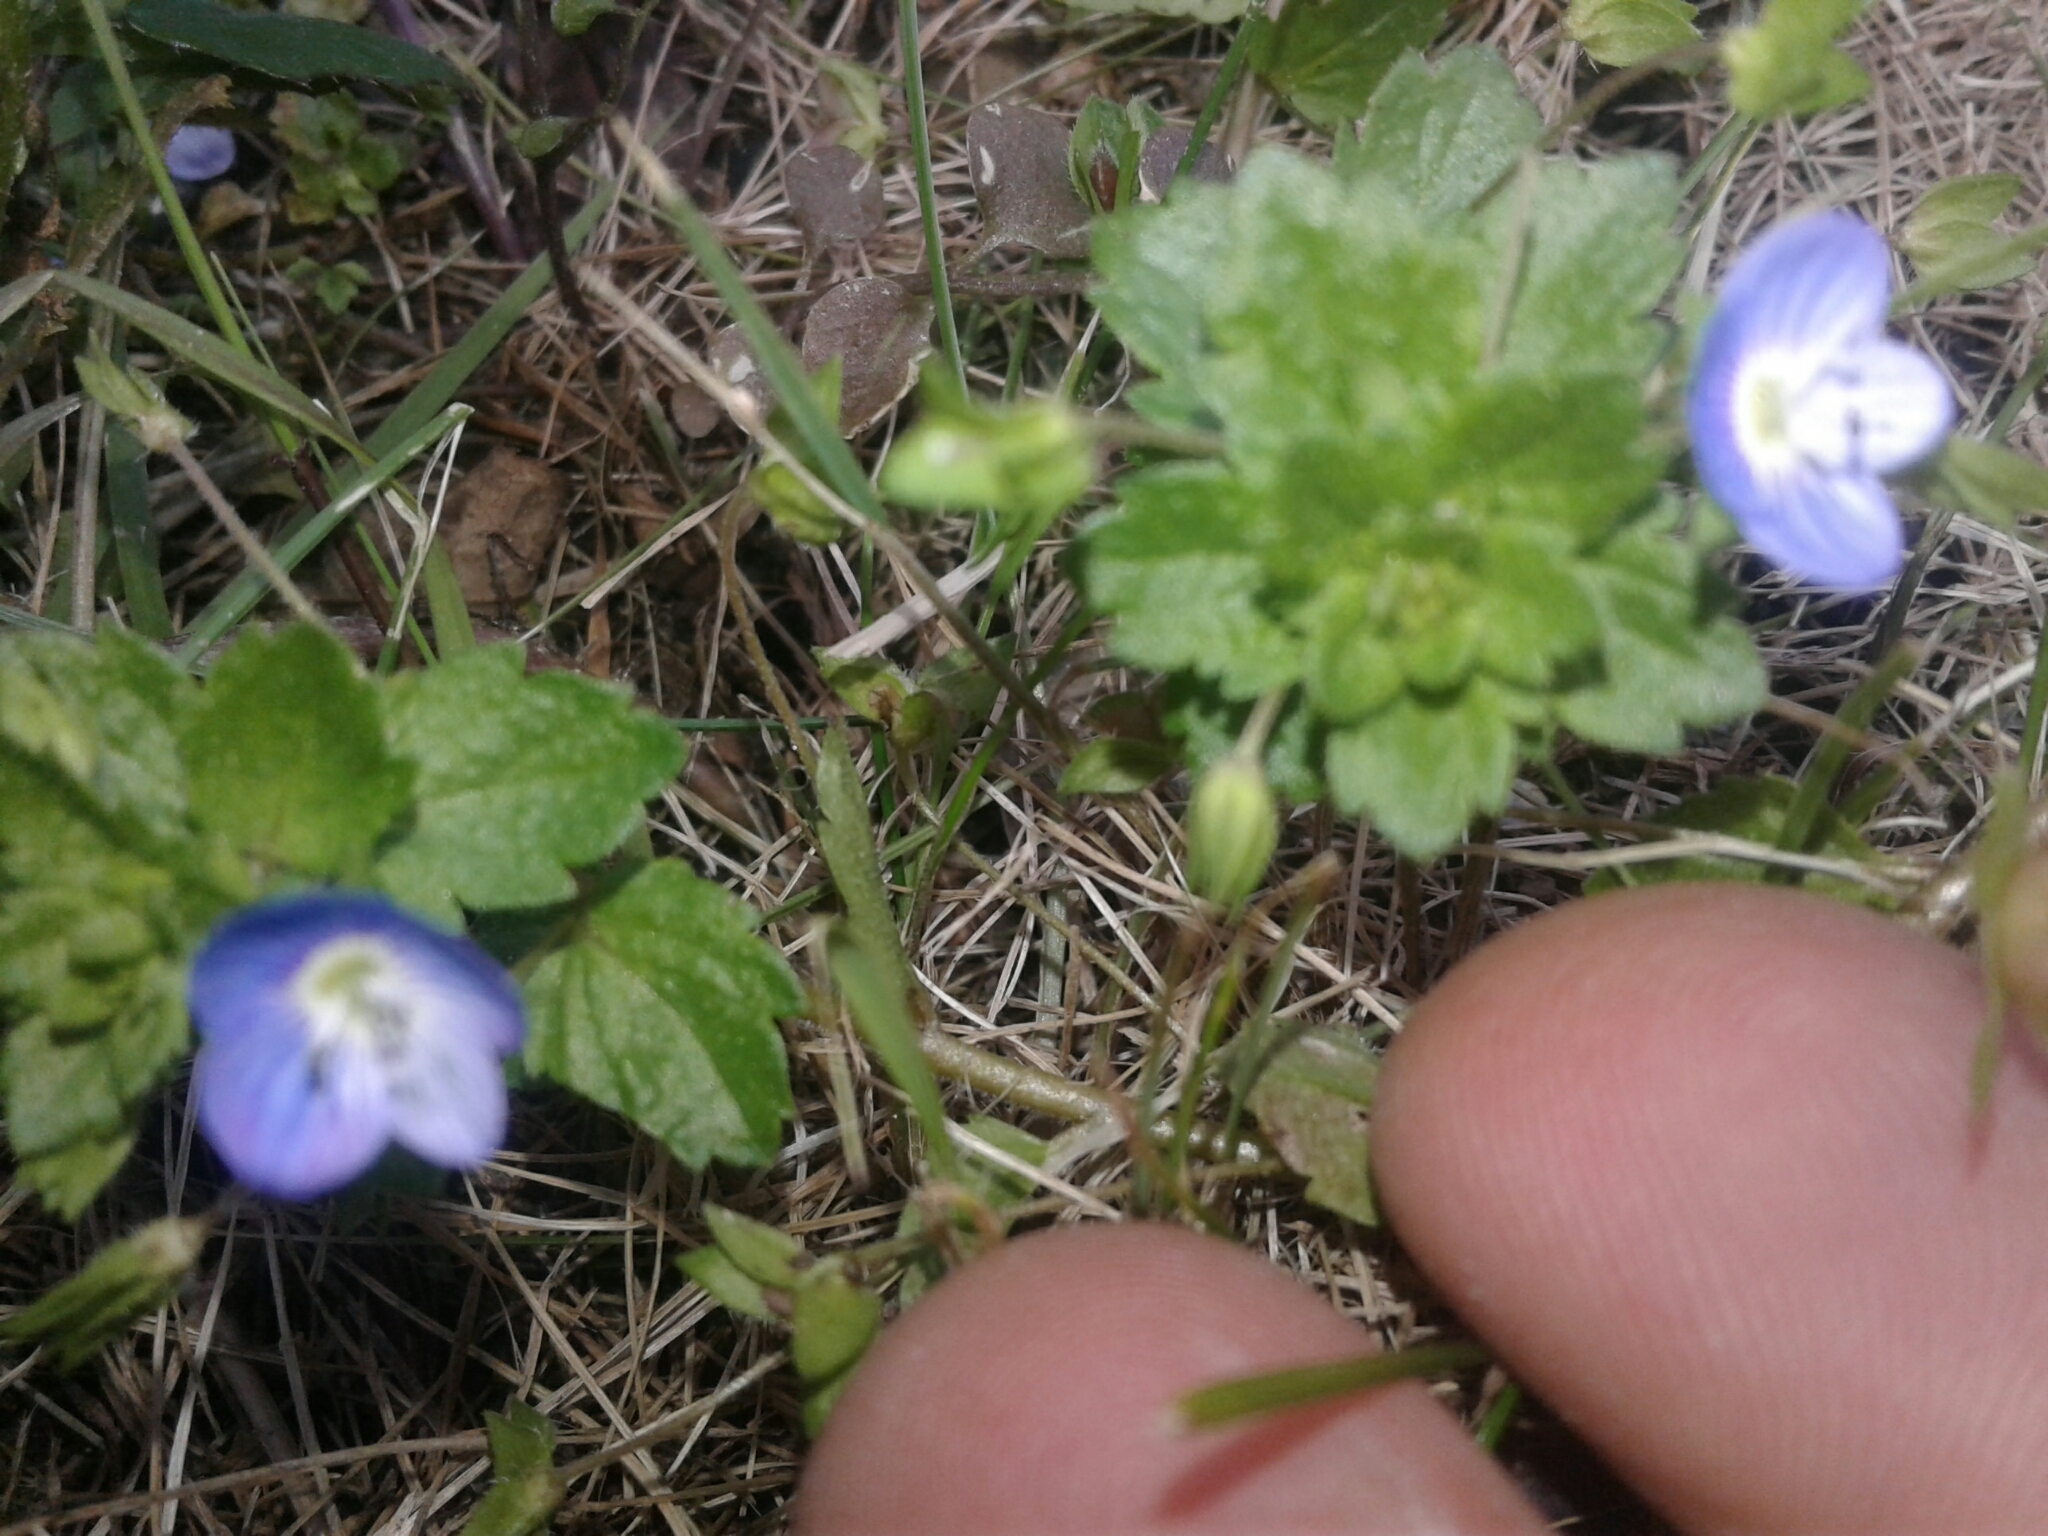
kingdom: Plantae
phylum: Tracheophyta
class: Magnoliopsida
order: Lamiales
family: Plantaginaceae
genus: Veronica
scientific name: Veronica persica
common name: Common field-speedwell
